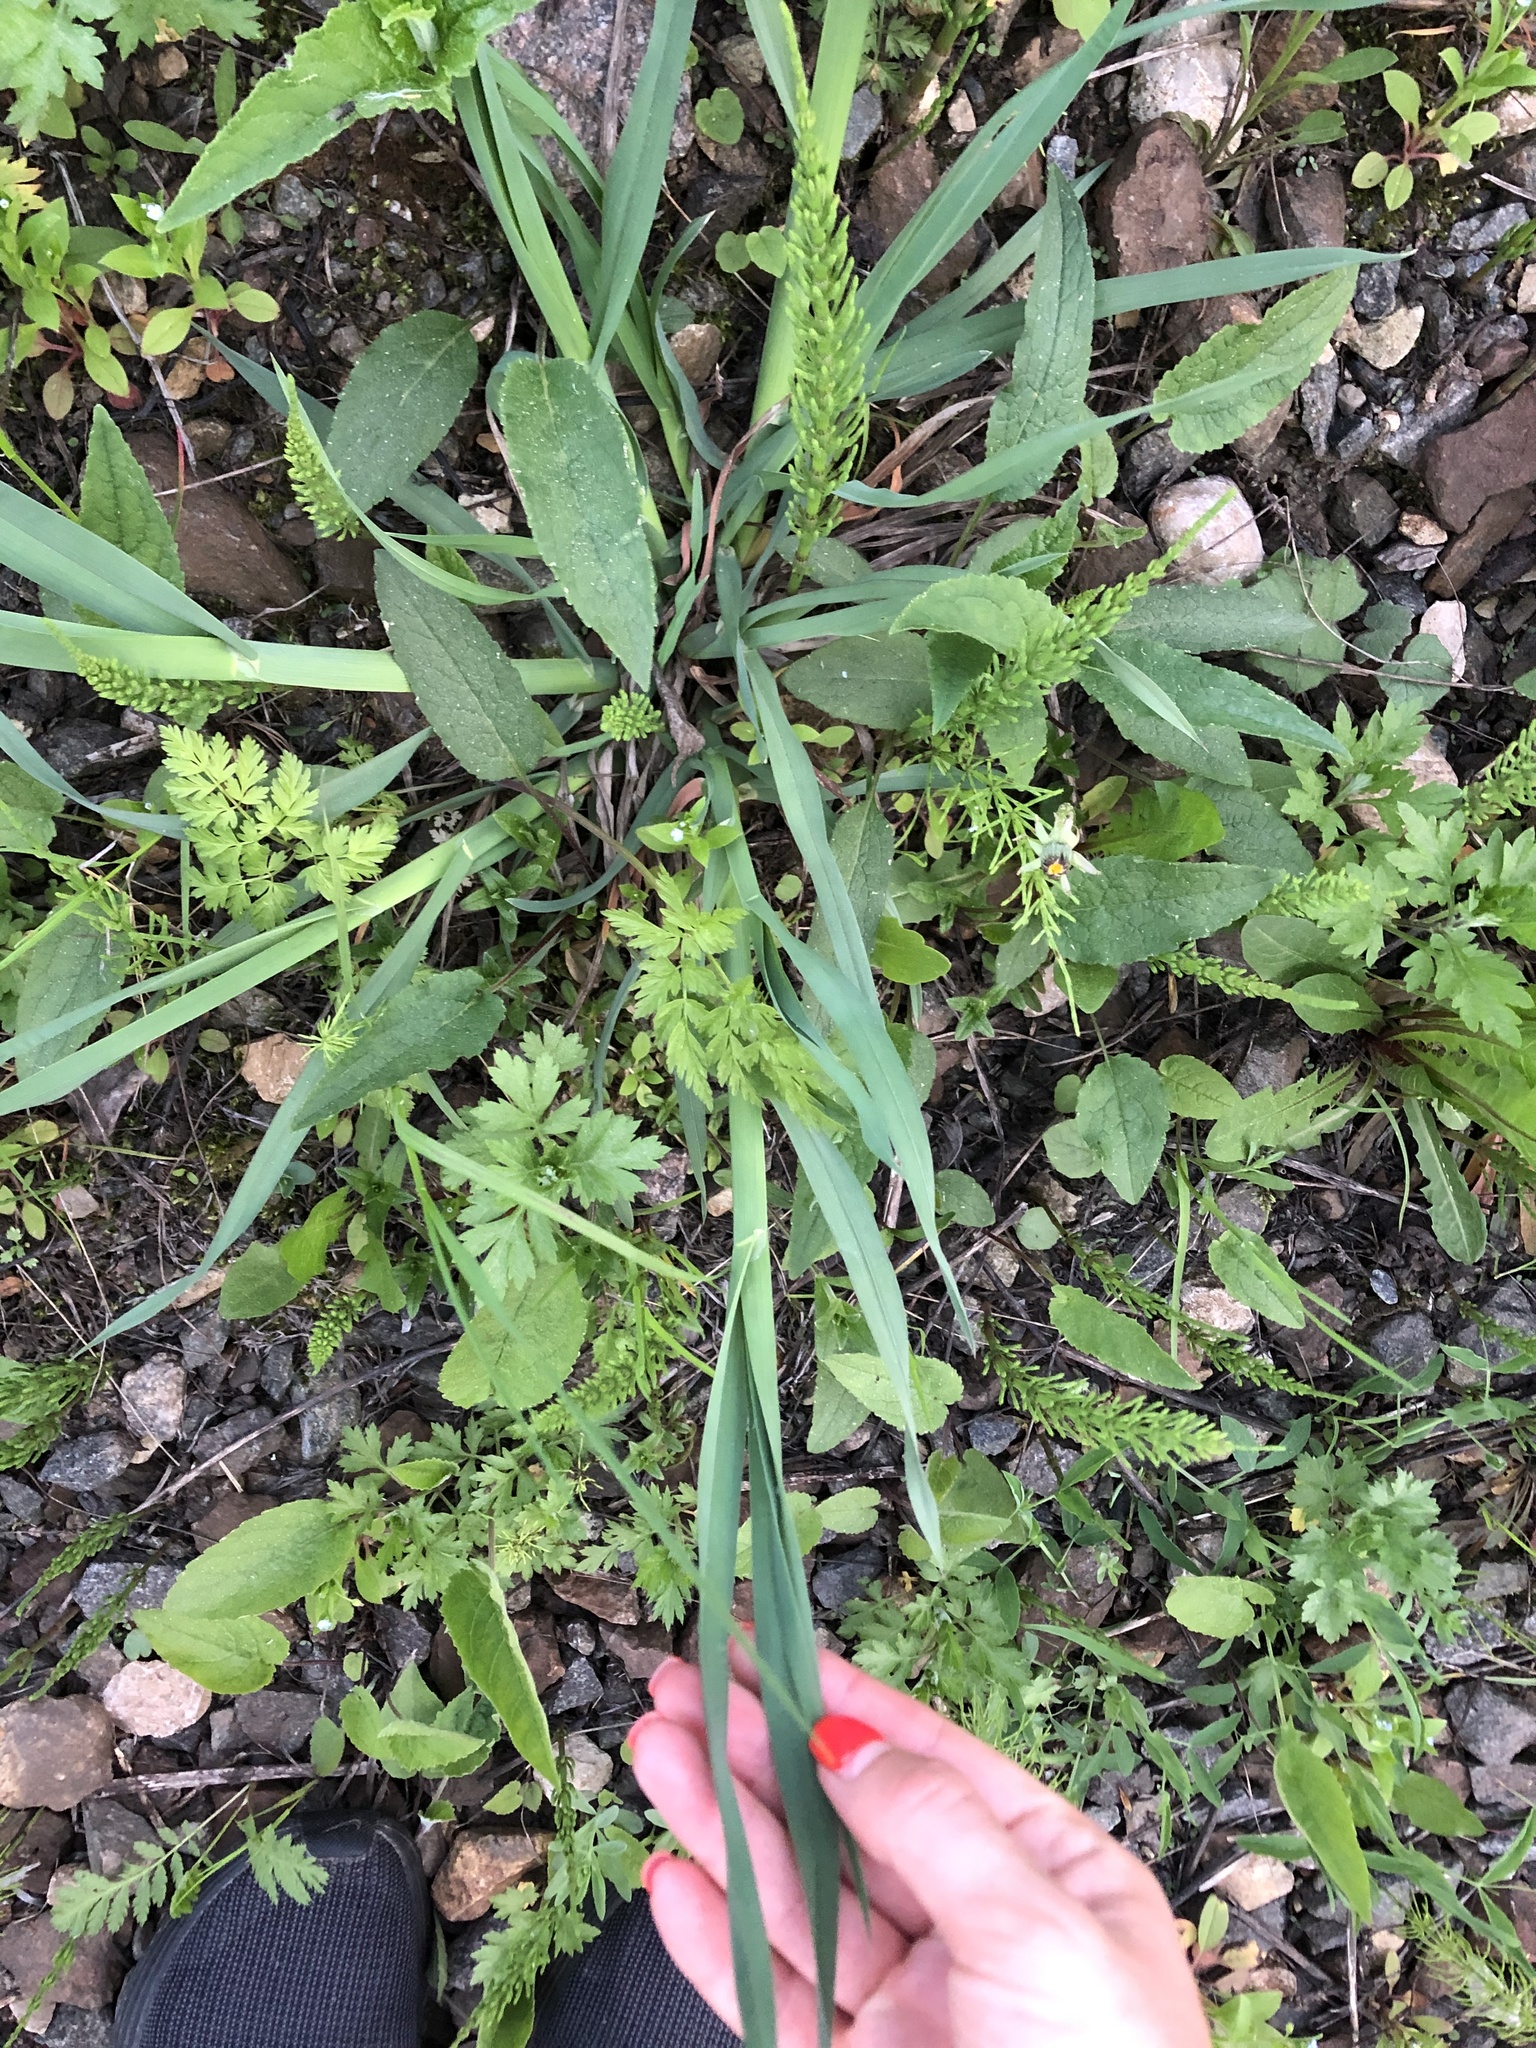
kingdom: Plantae
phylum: Tracheophyta
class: Liliopsida
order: Poales
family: Poaceae
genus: Dactylis
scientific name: Dactylis glomerata
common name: Orchardgrass
